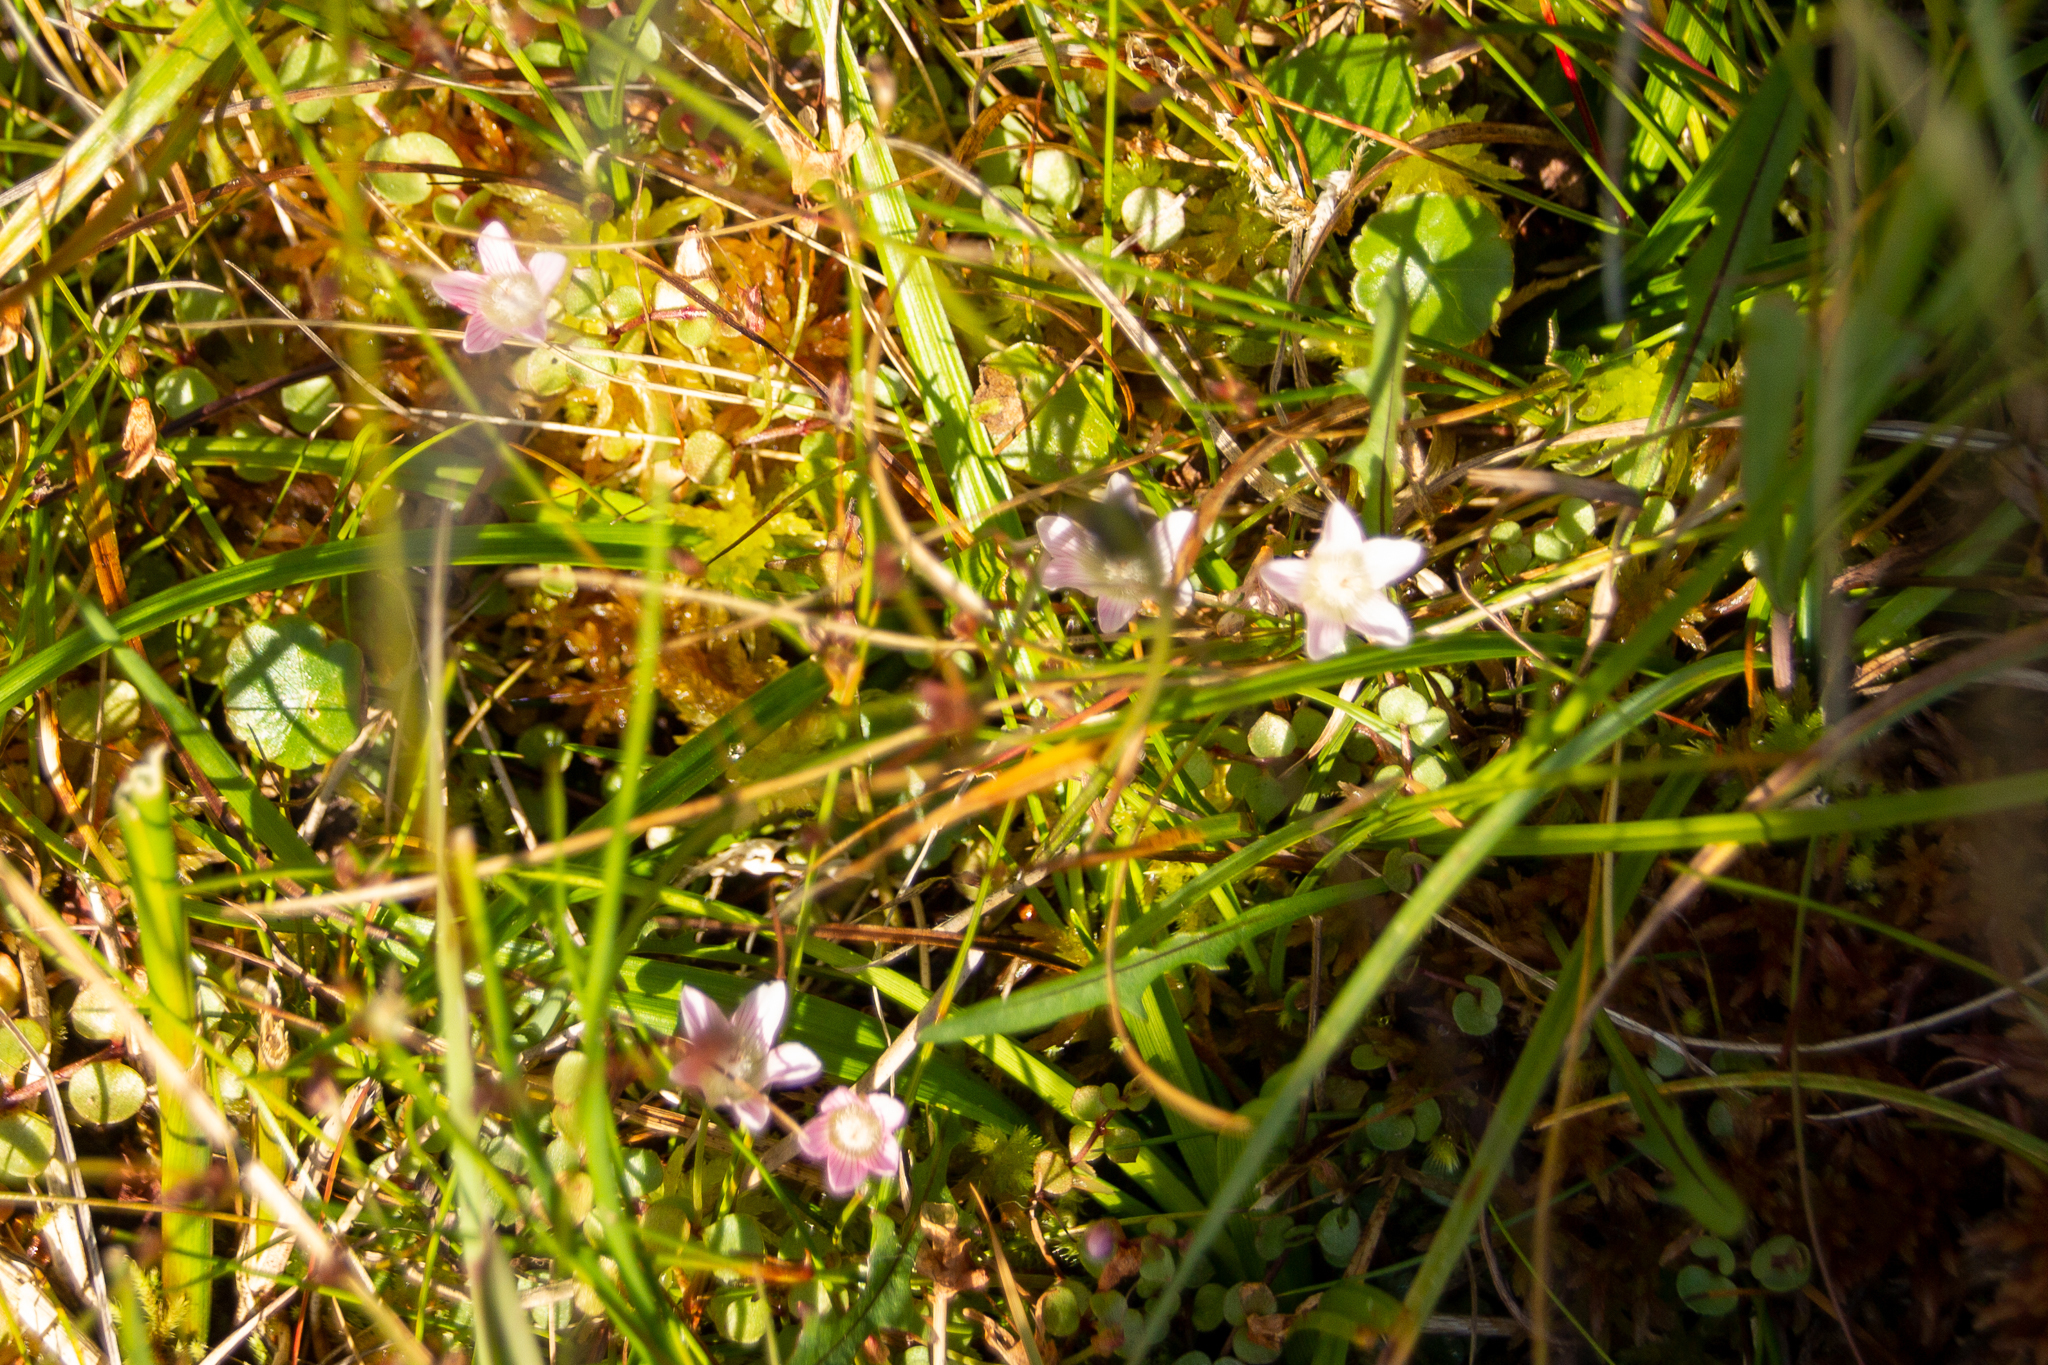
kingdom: Plantae
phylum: Tracheophyta
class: Magnoliopsida
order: Ericales
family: Primulaceae
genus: Lysimachia
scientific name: Lysimachia tenella
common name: European bog pimpernel
